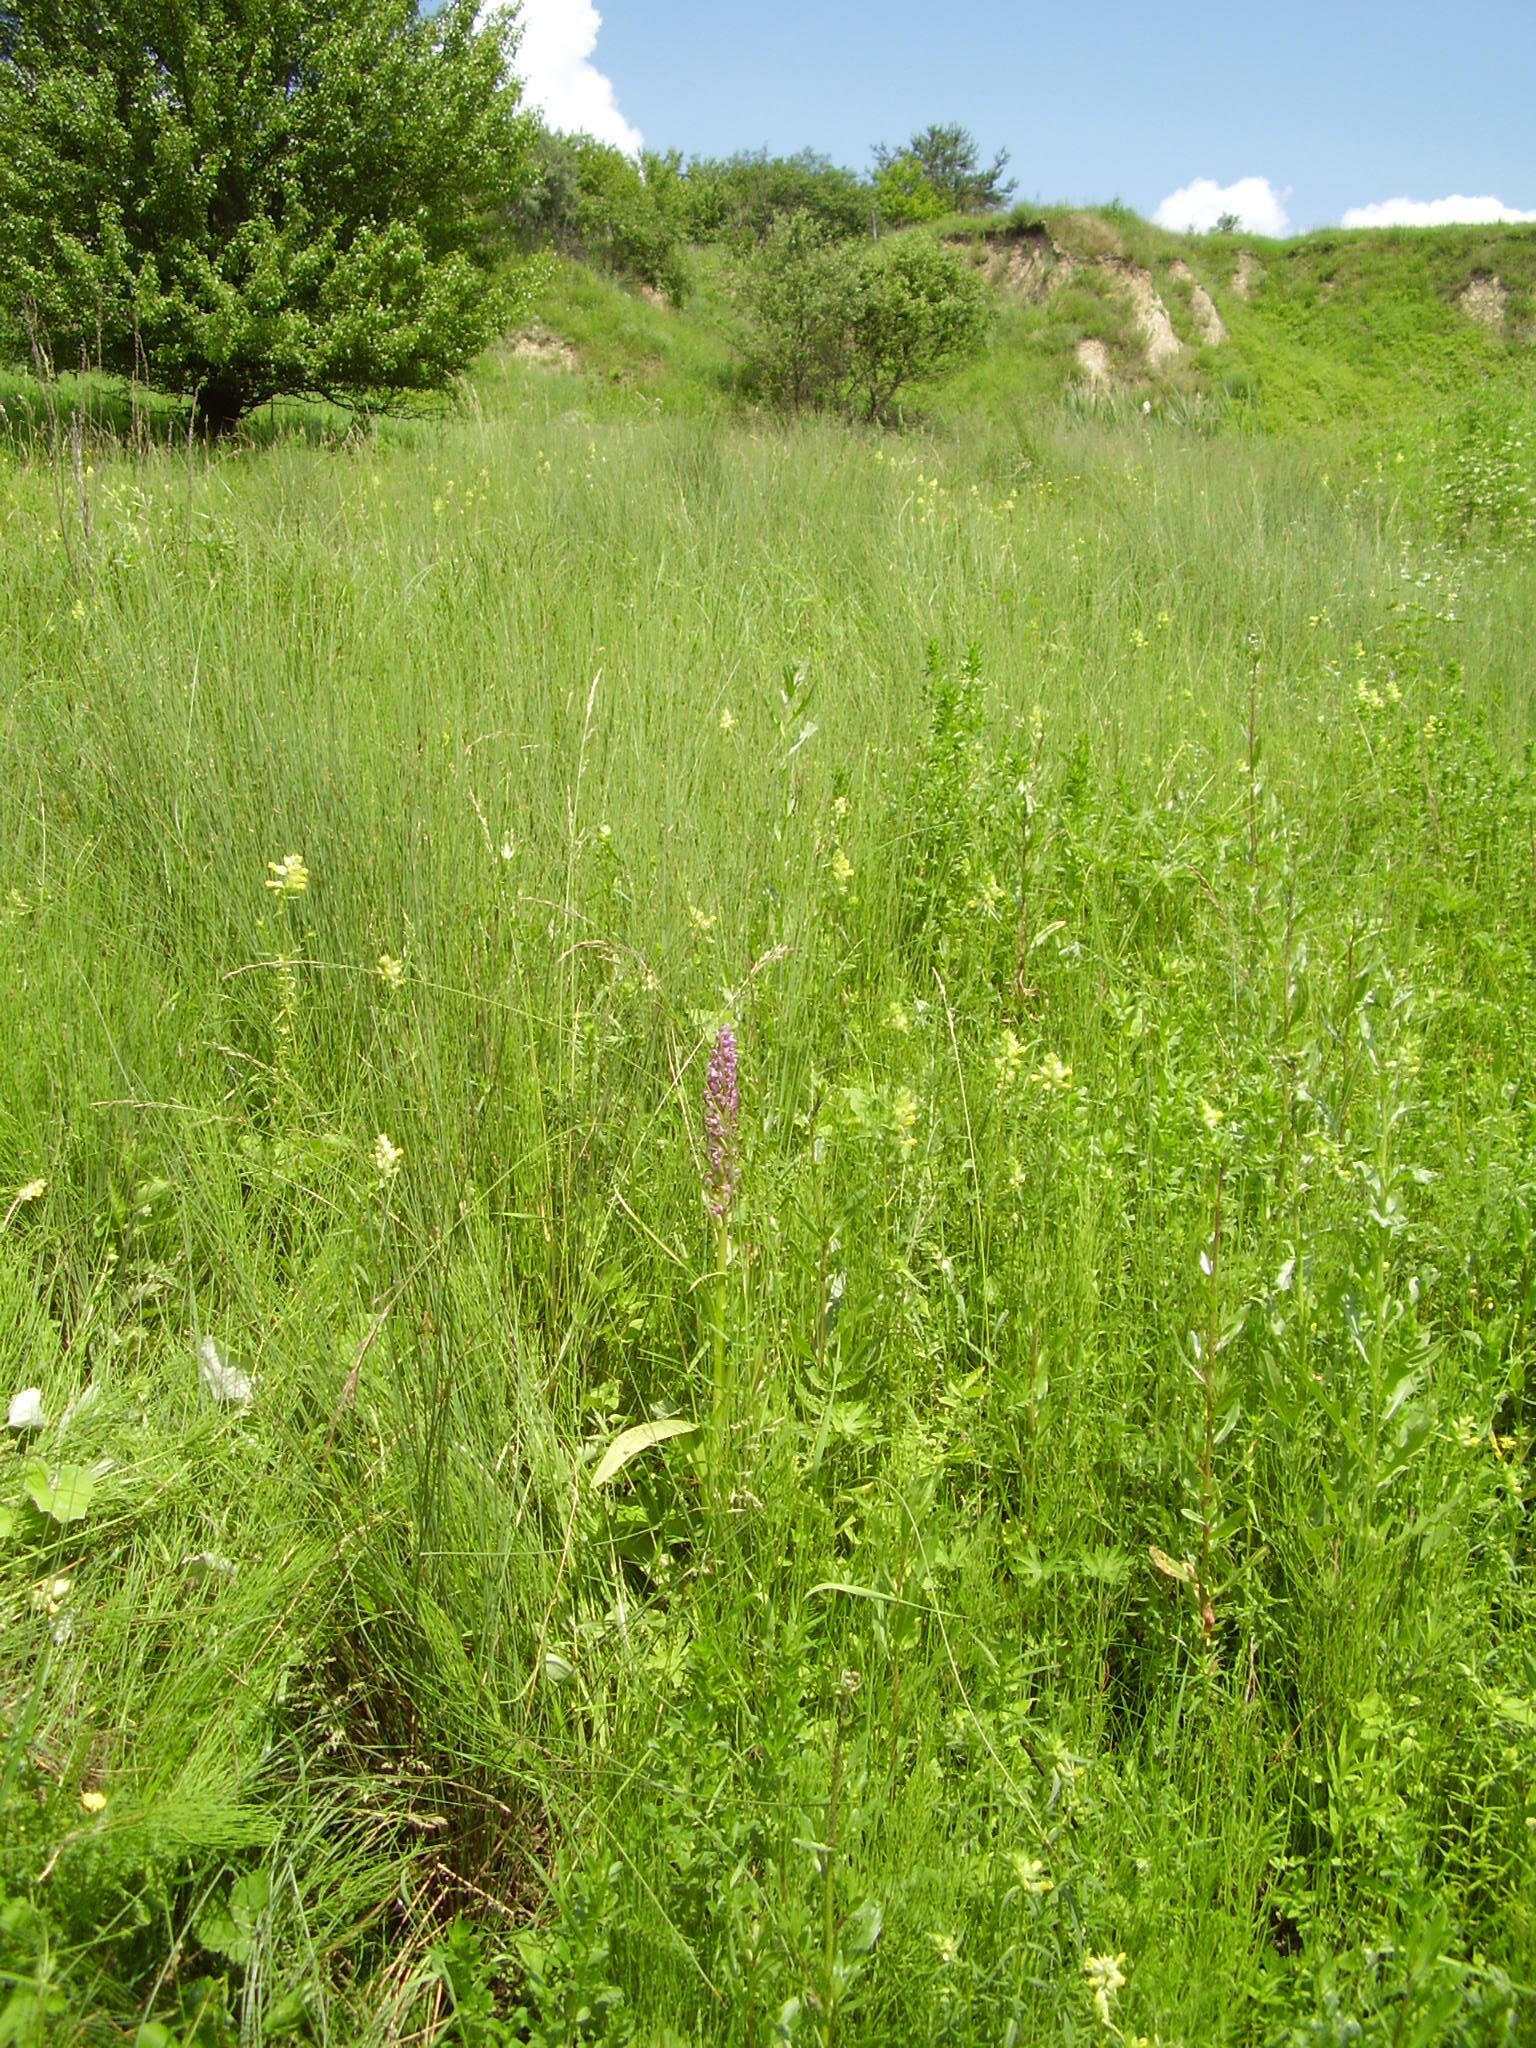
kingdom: Plantae
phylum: Tracheophyta
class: Liliopsida
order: Asparagales
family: Orchidaceae
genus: Dactylorhiza
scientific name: Dactylorhiza incarnata
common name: Early marsh-orchid
